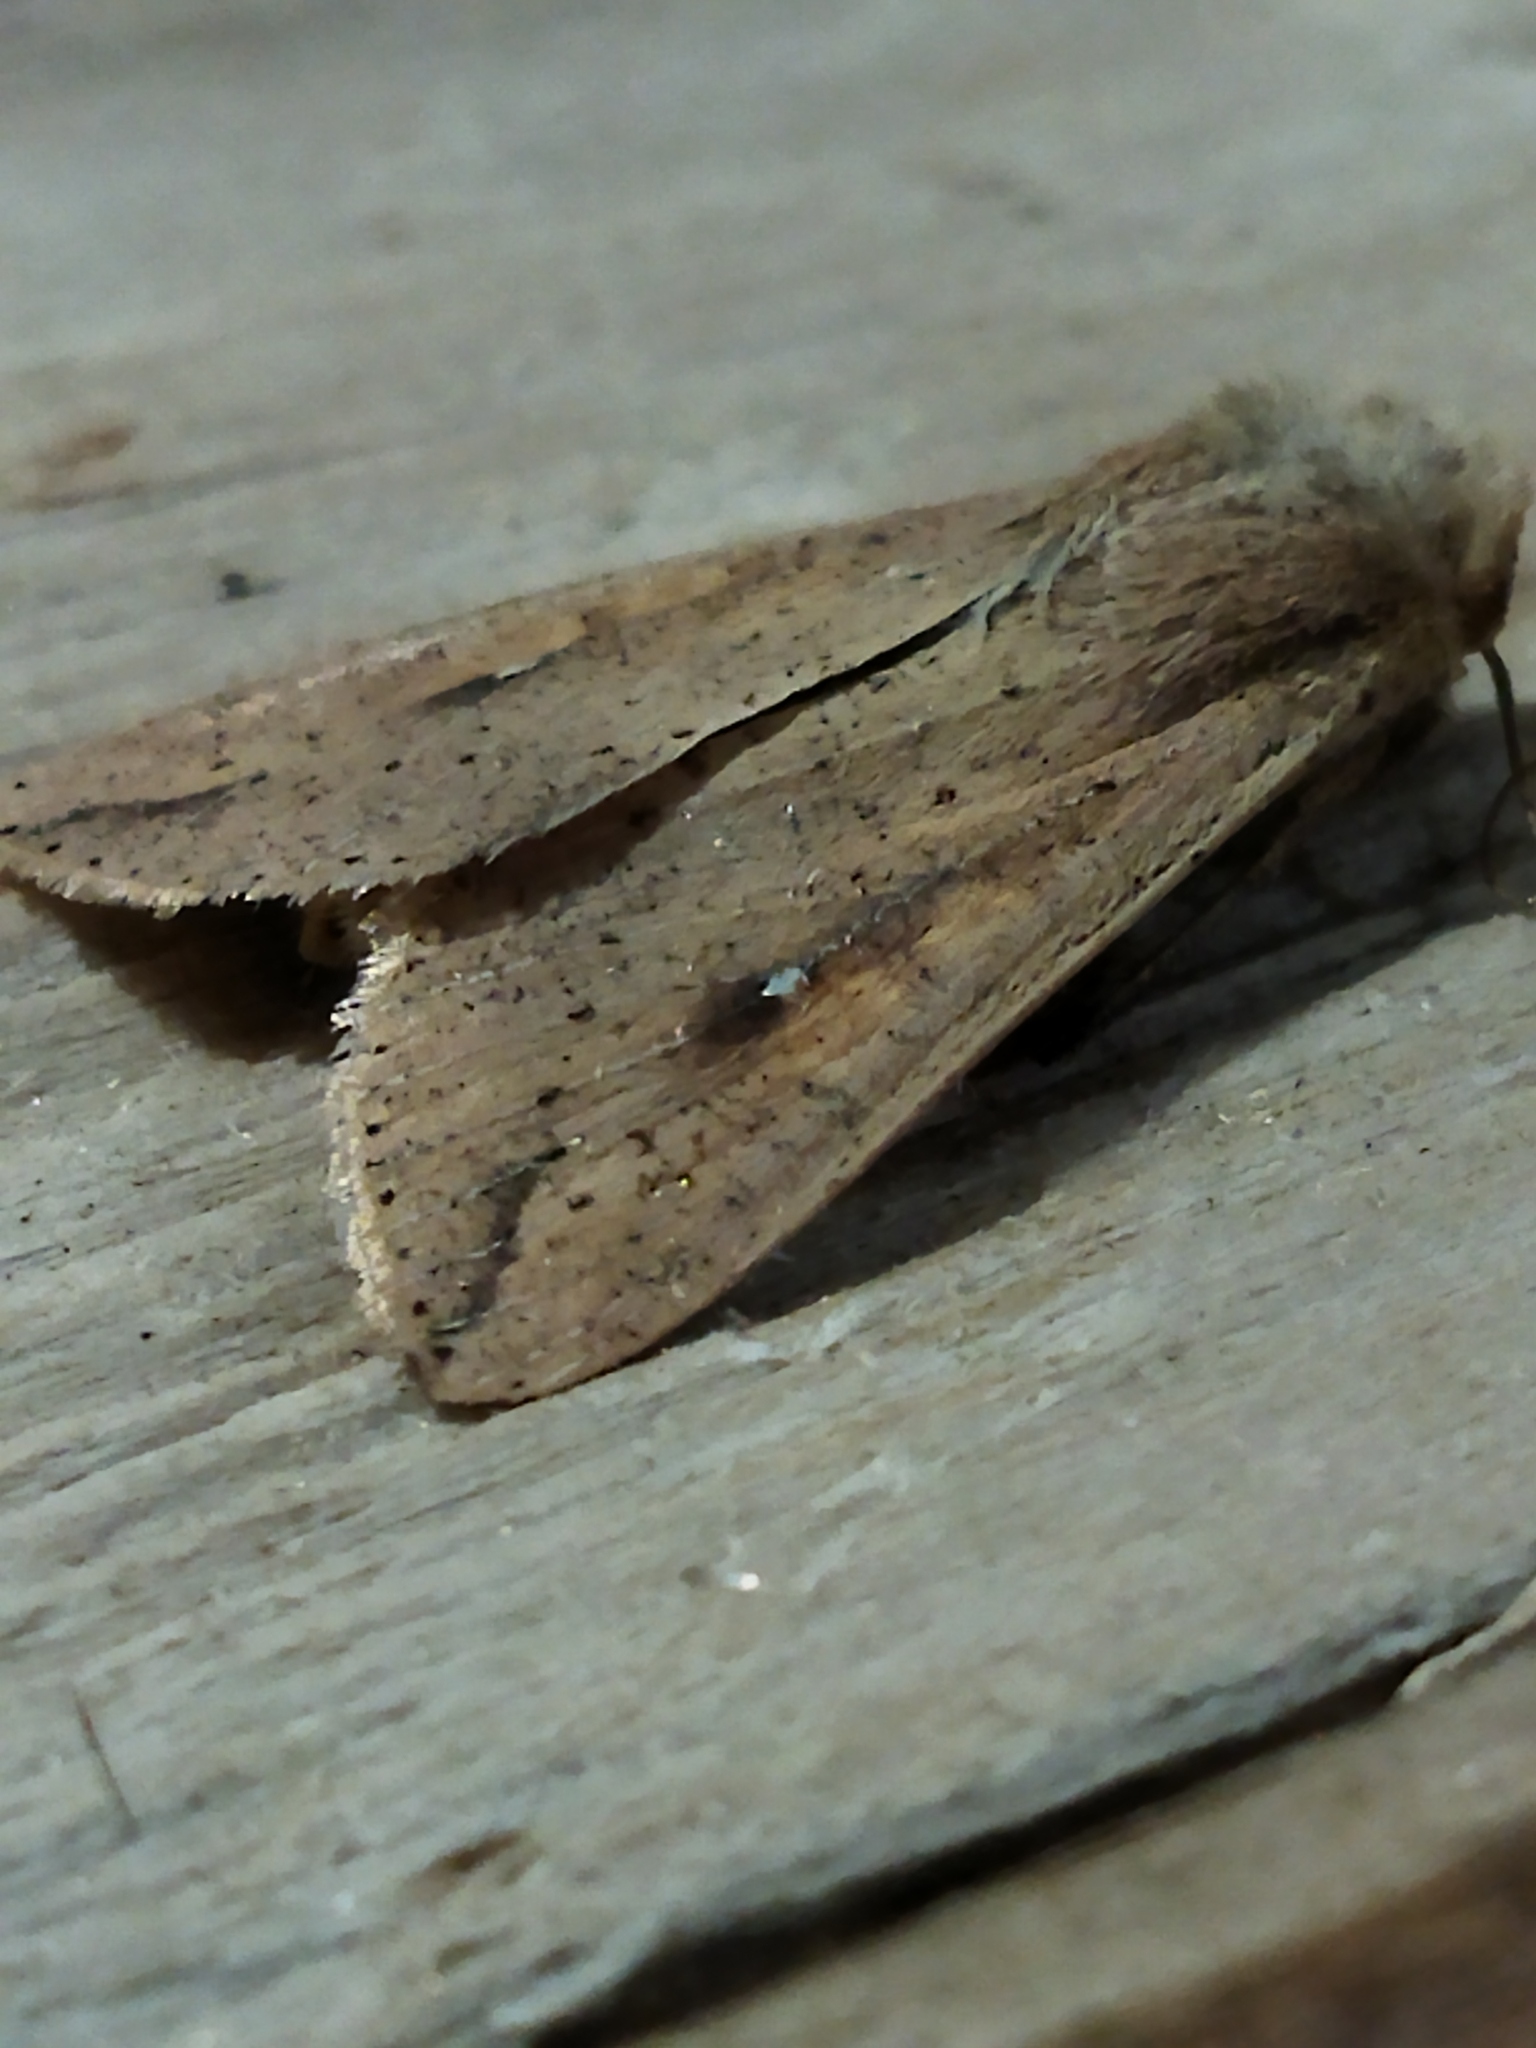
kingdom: Animalia
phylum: Arthropoda
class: Insecta
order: Lepidoptera
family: Noctuidae
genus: Mythimna
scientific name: Mythimna unipuncta
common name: White-speck
